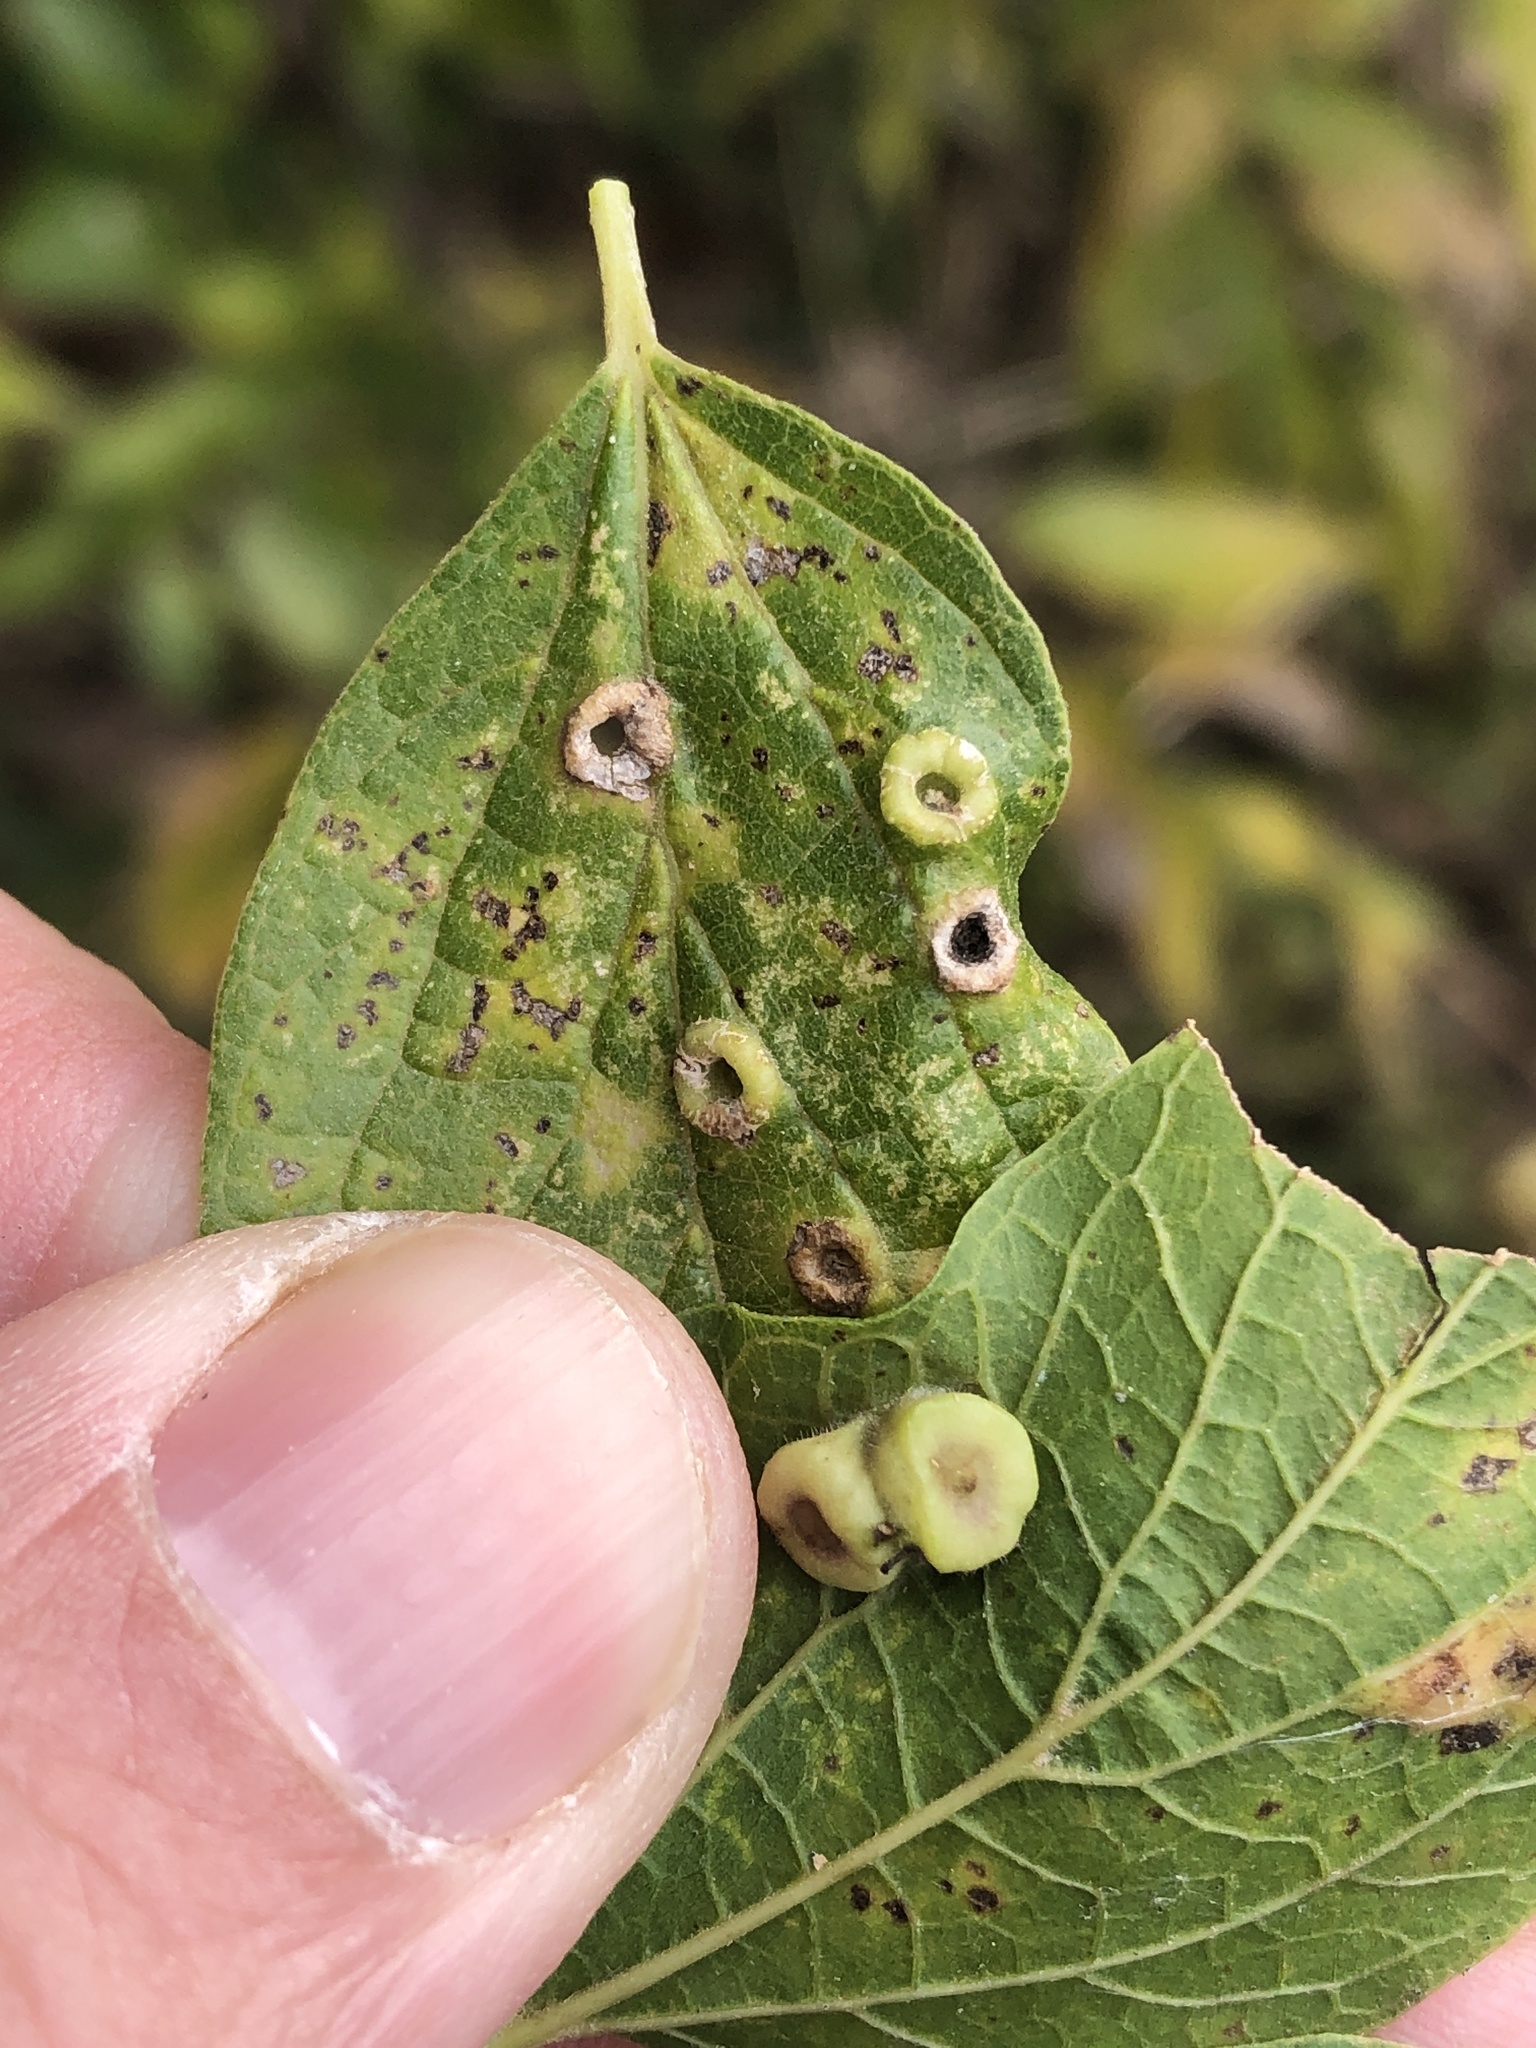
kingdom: Animalia
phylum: Arthropoda
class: Insecta
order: Hemiptera
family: Aphalaridae
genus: Pachypsylla
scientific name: Pachypsylla celtidismamma
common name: Hackberry nipplegall psyllid
